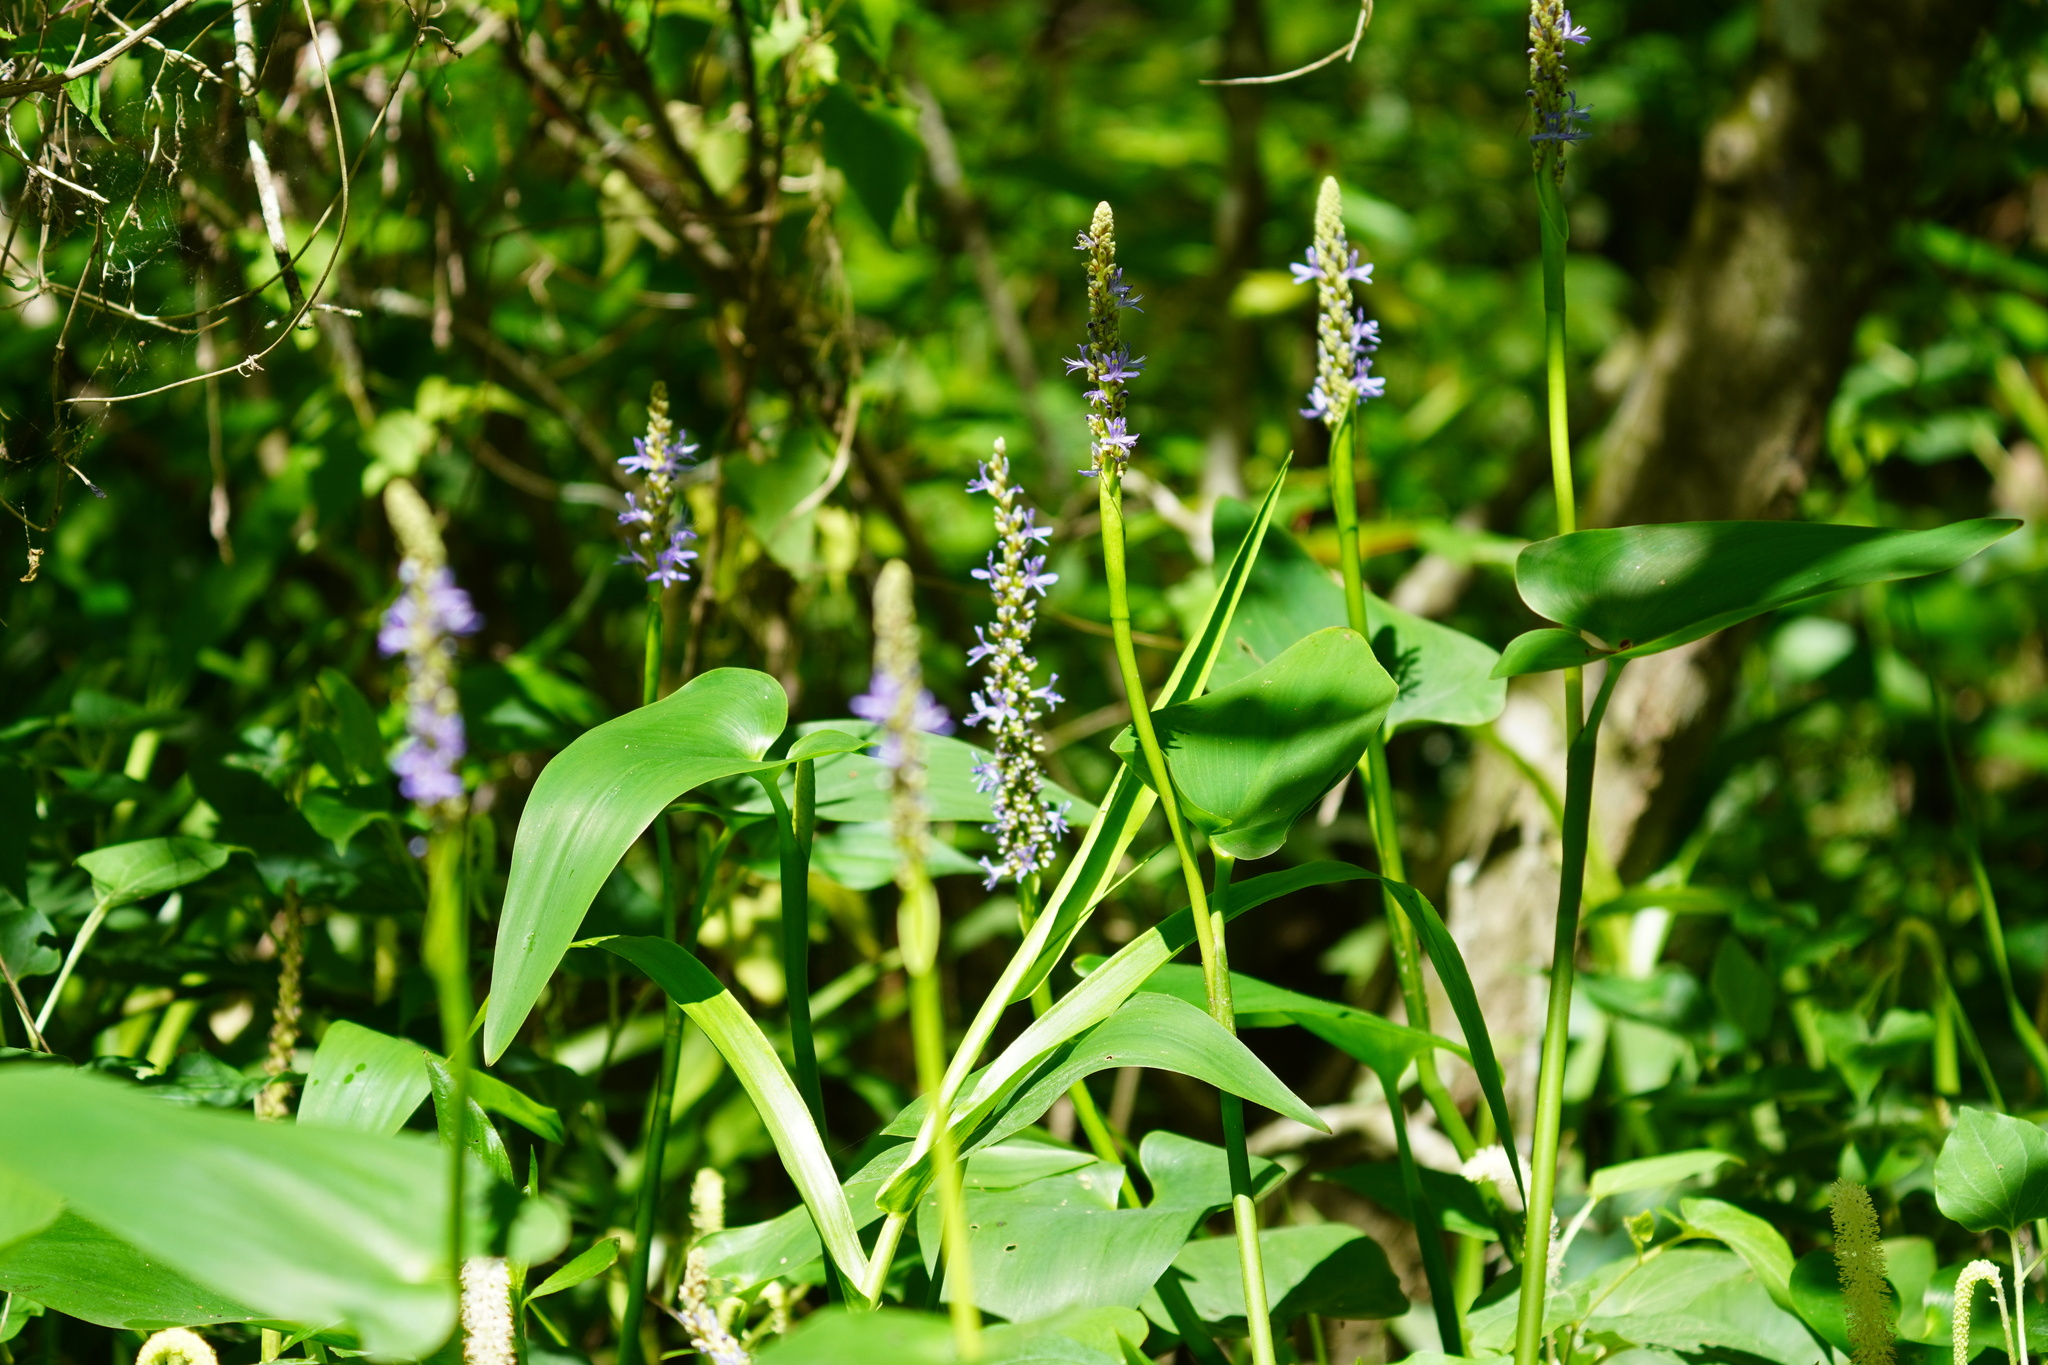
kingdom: Plantae
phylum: Tracheophyta
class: Liliopsida
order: Commelinales
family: Pontederiaceae
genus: Pontederia
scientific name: Pontederia cordata
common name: Pickerelweed
